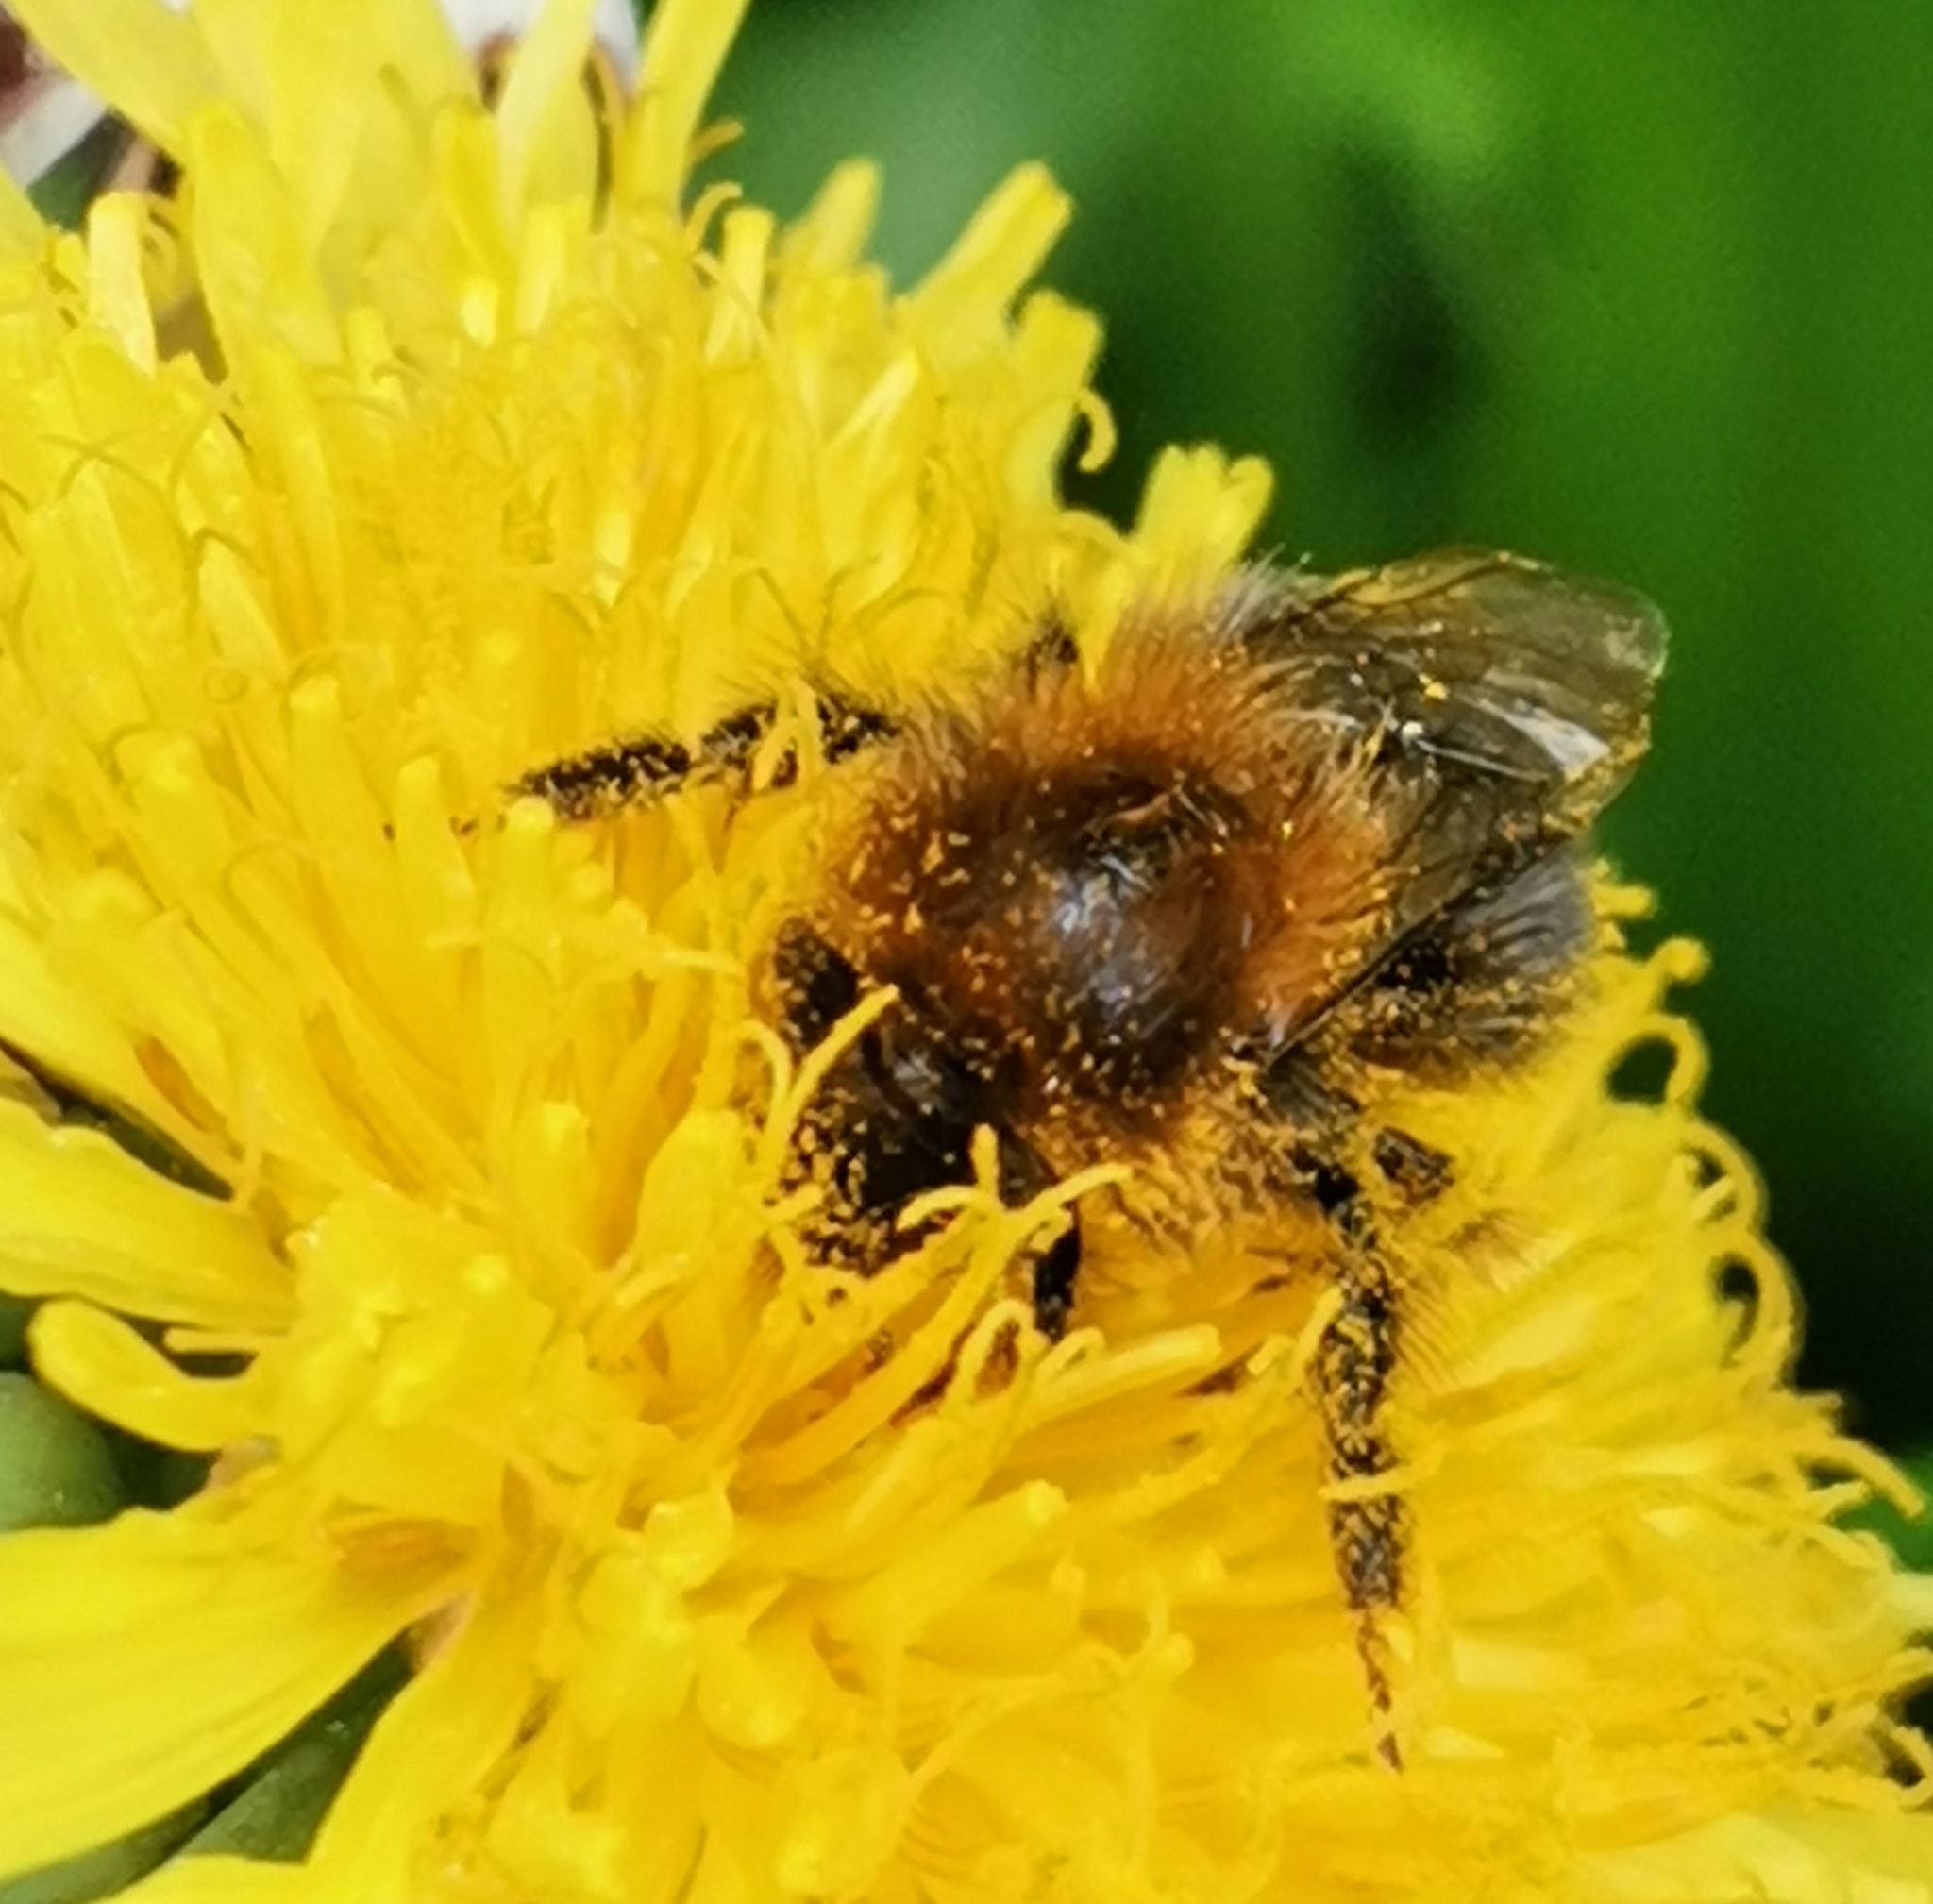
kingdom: Animalia
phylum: Arthropoda
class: Insecta
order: Hymenoptera
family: Apidae
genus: Bombus
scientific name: Bombus hypnorum
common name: New garden bumblebee
